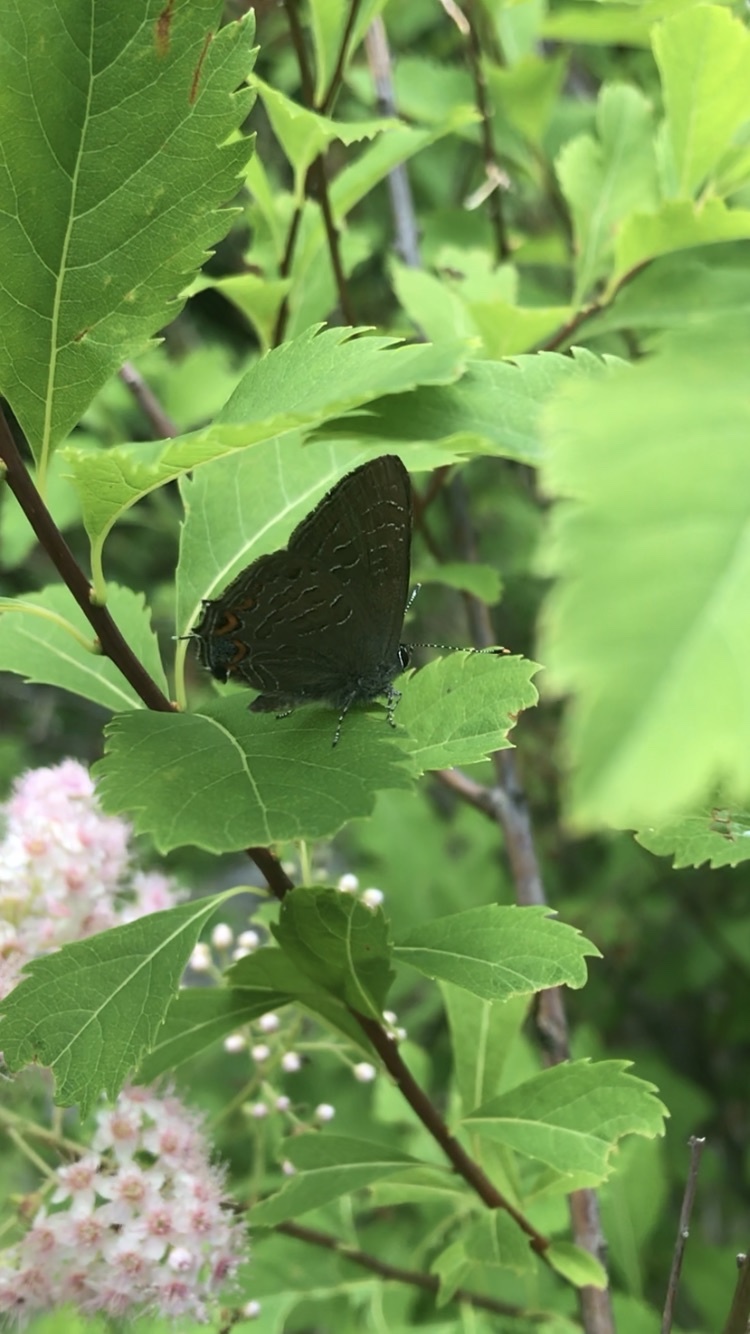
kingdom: Animalia
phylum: Arthropoda
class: Insecta
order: Lepidoptera
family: Lycaenidae
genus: Satyrium
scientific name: Satyrium liparops
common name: Striped hairstreak
